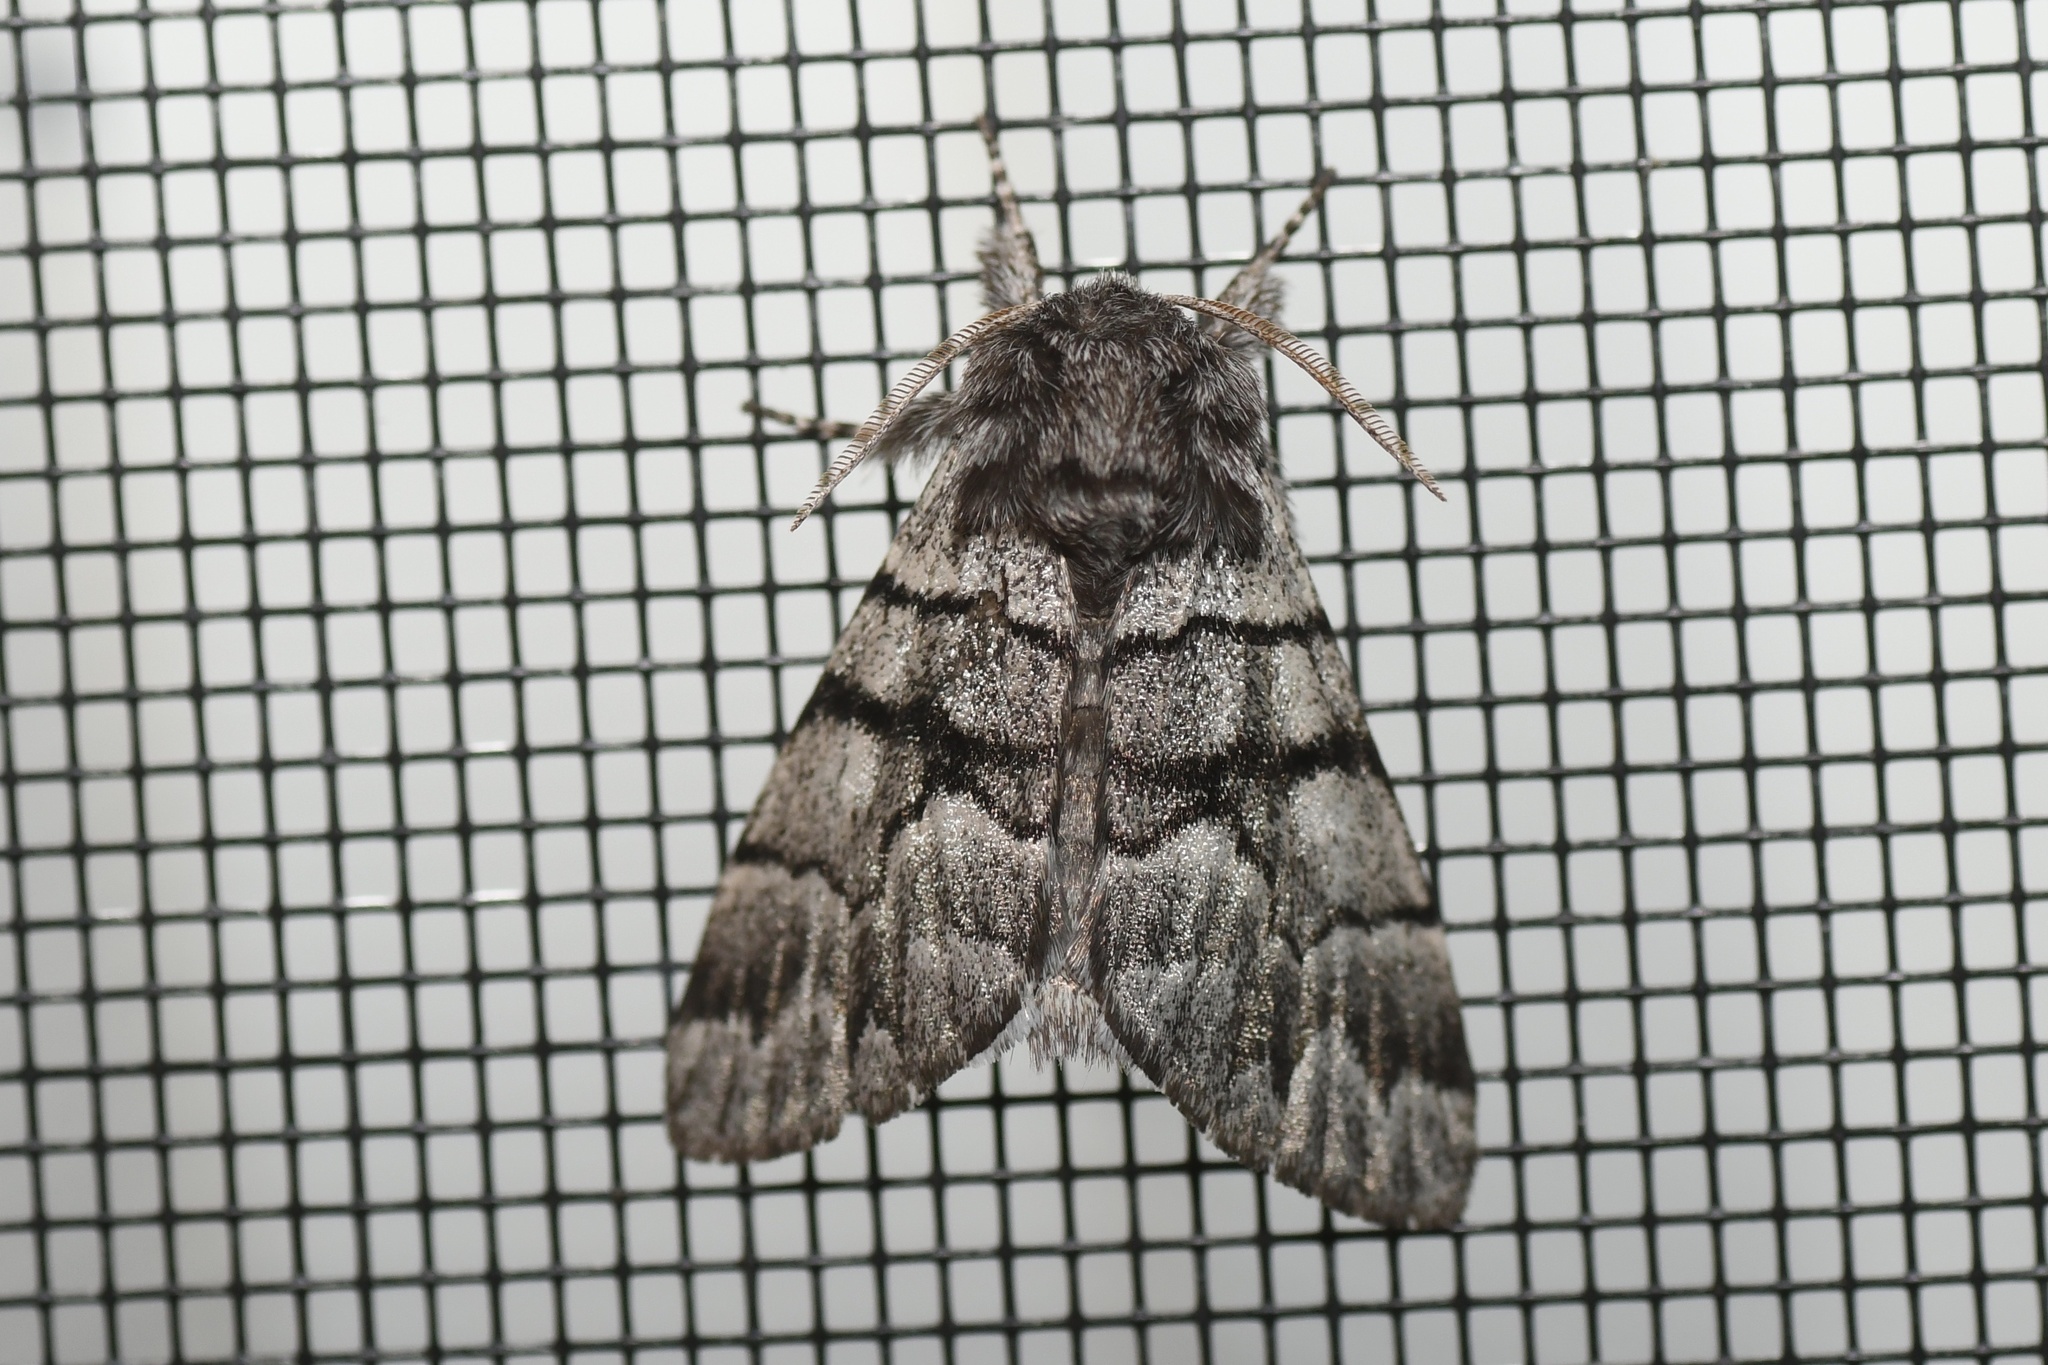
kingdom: Animalia
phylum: Arthropoda
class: Insecta
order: Lepidoptera
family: Noctuidae
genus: Panthea
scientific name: Panthea furcilla
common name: Eastern panthea moth
